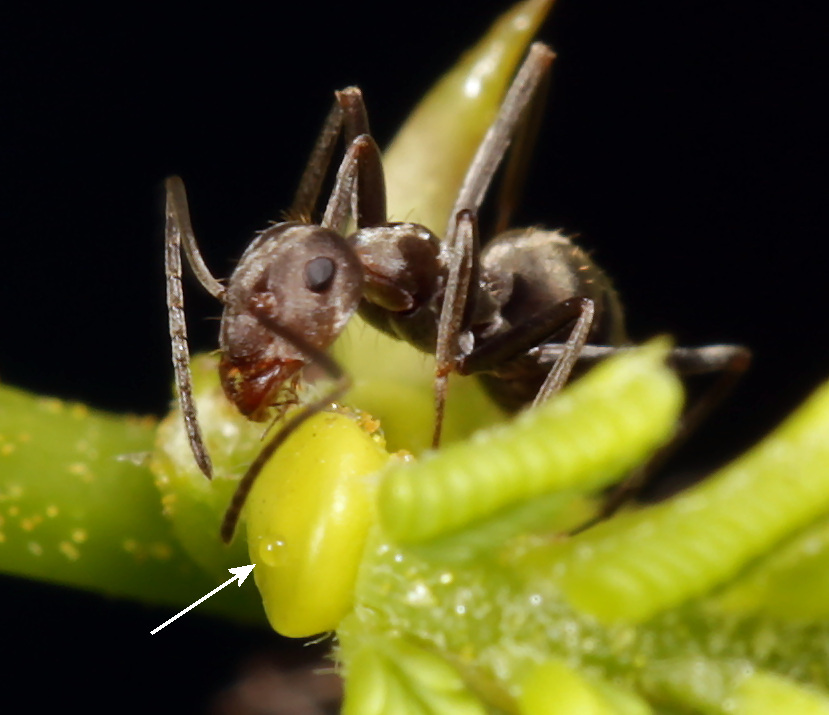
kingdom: Plantae
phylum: Tracheophyta
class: Magnoliopsida
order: Fabales
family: Fabaceae
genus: Vachellia
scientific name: Vachellia tortilis
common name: Umbrella thorn acacia
